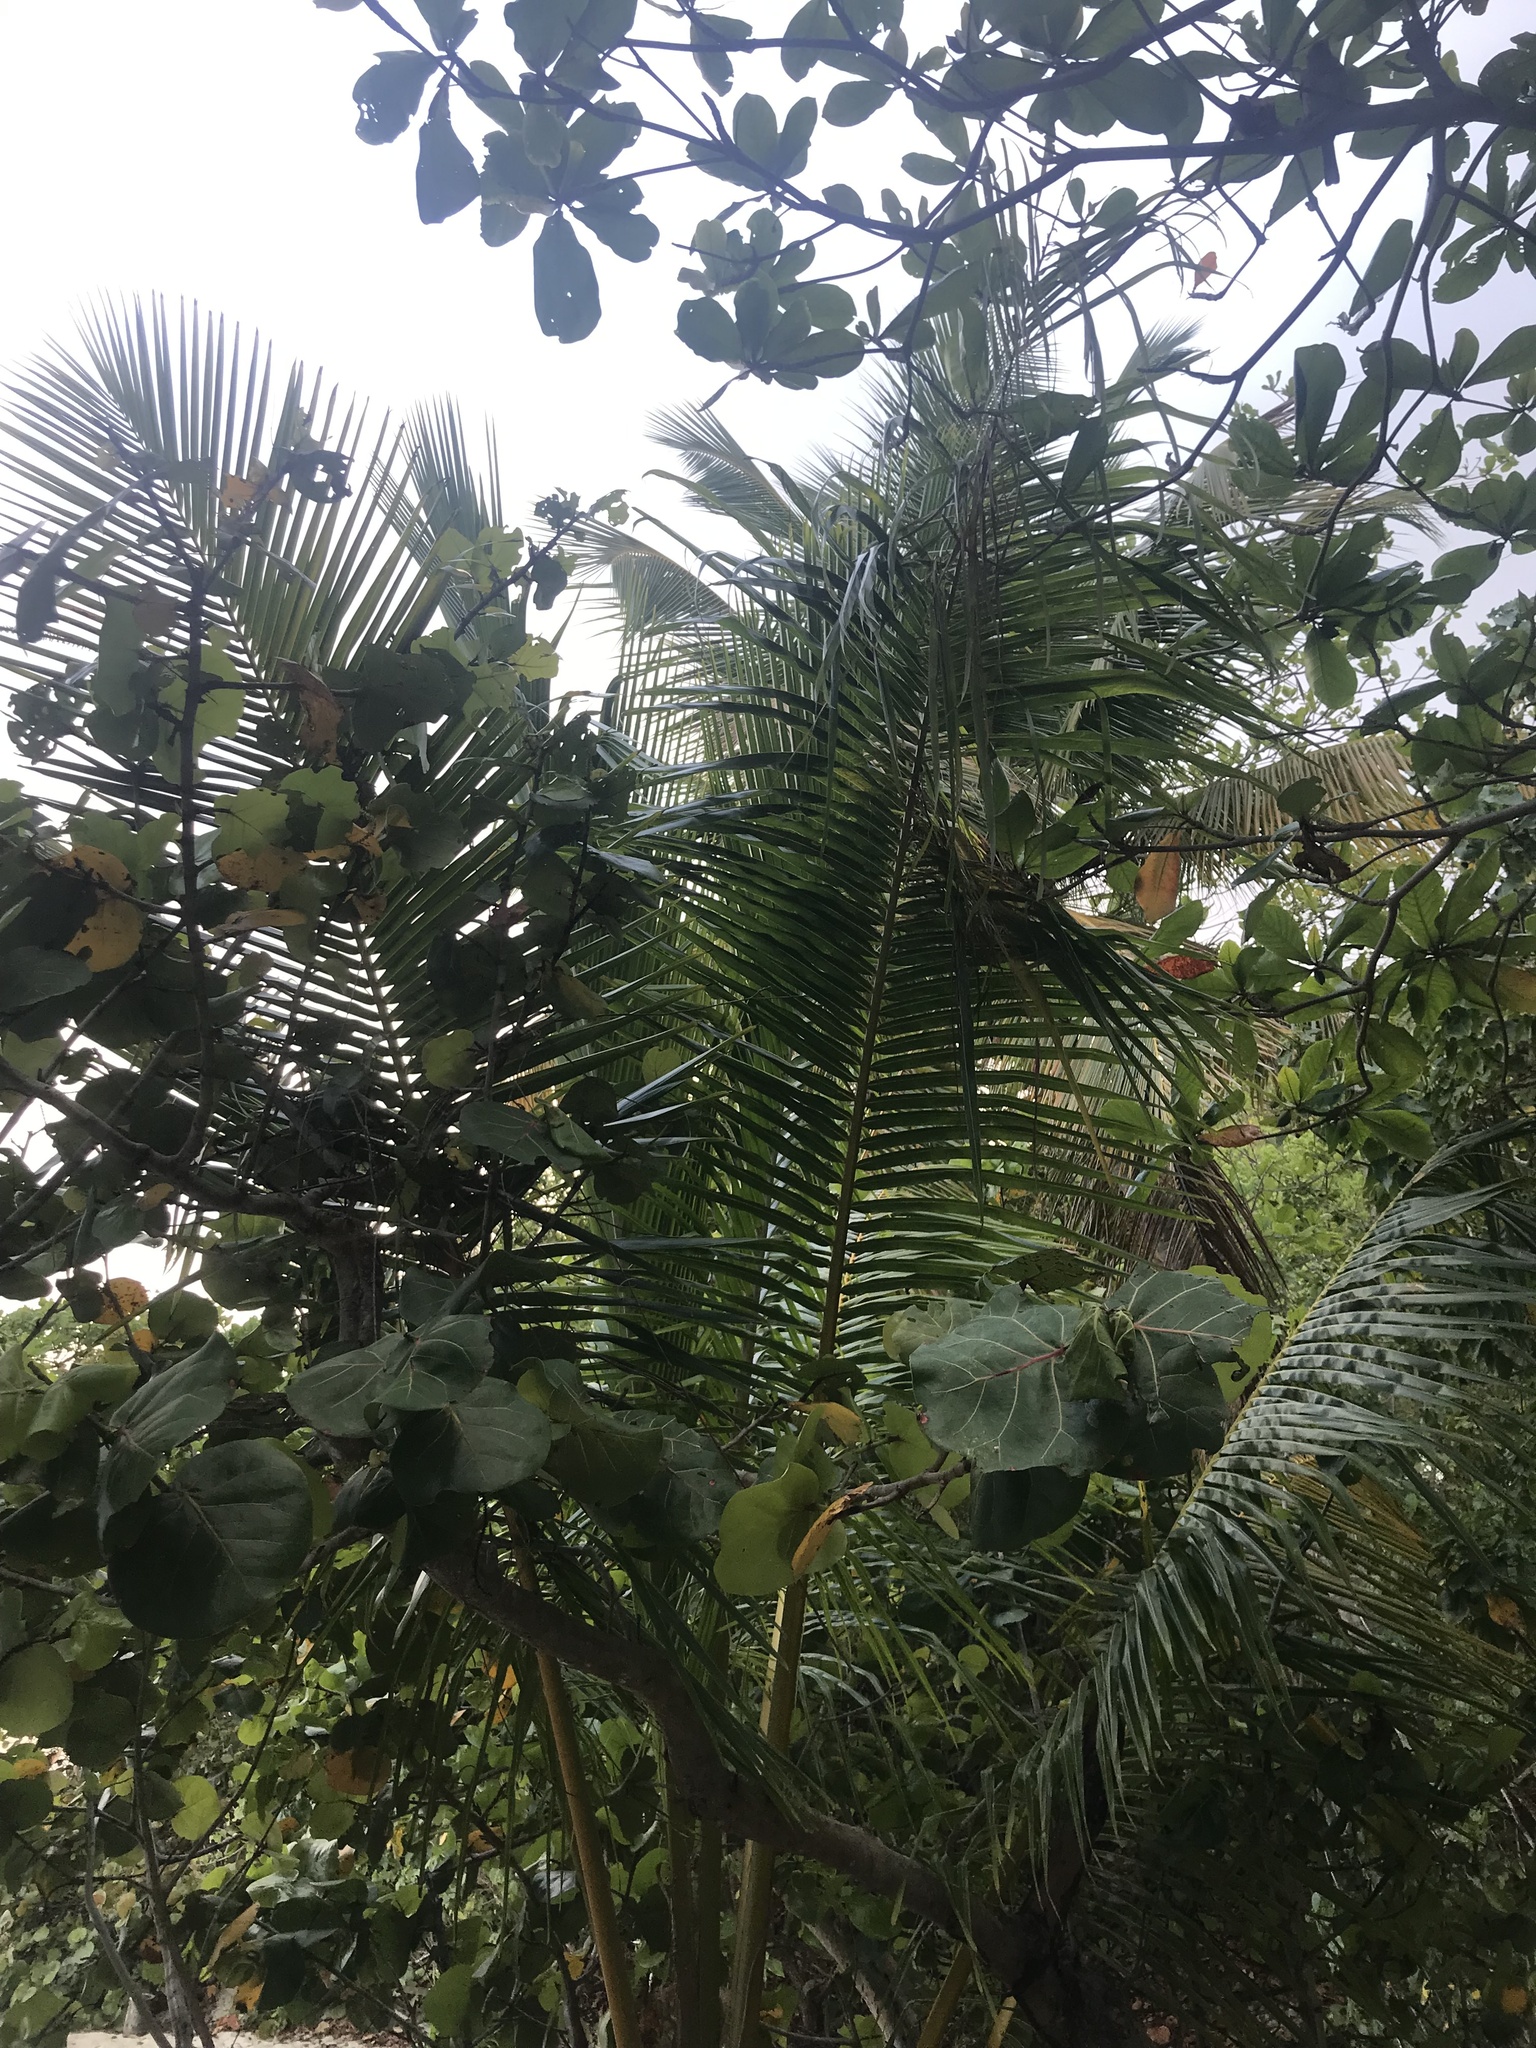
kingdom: Plantae
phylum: Tracheophyta
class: Liliopsida
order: Arecales
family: Arecaceae
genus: Cocos
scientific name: Cocos nucifera
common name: Coconut palm
